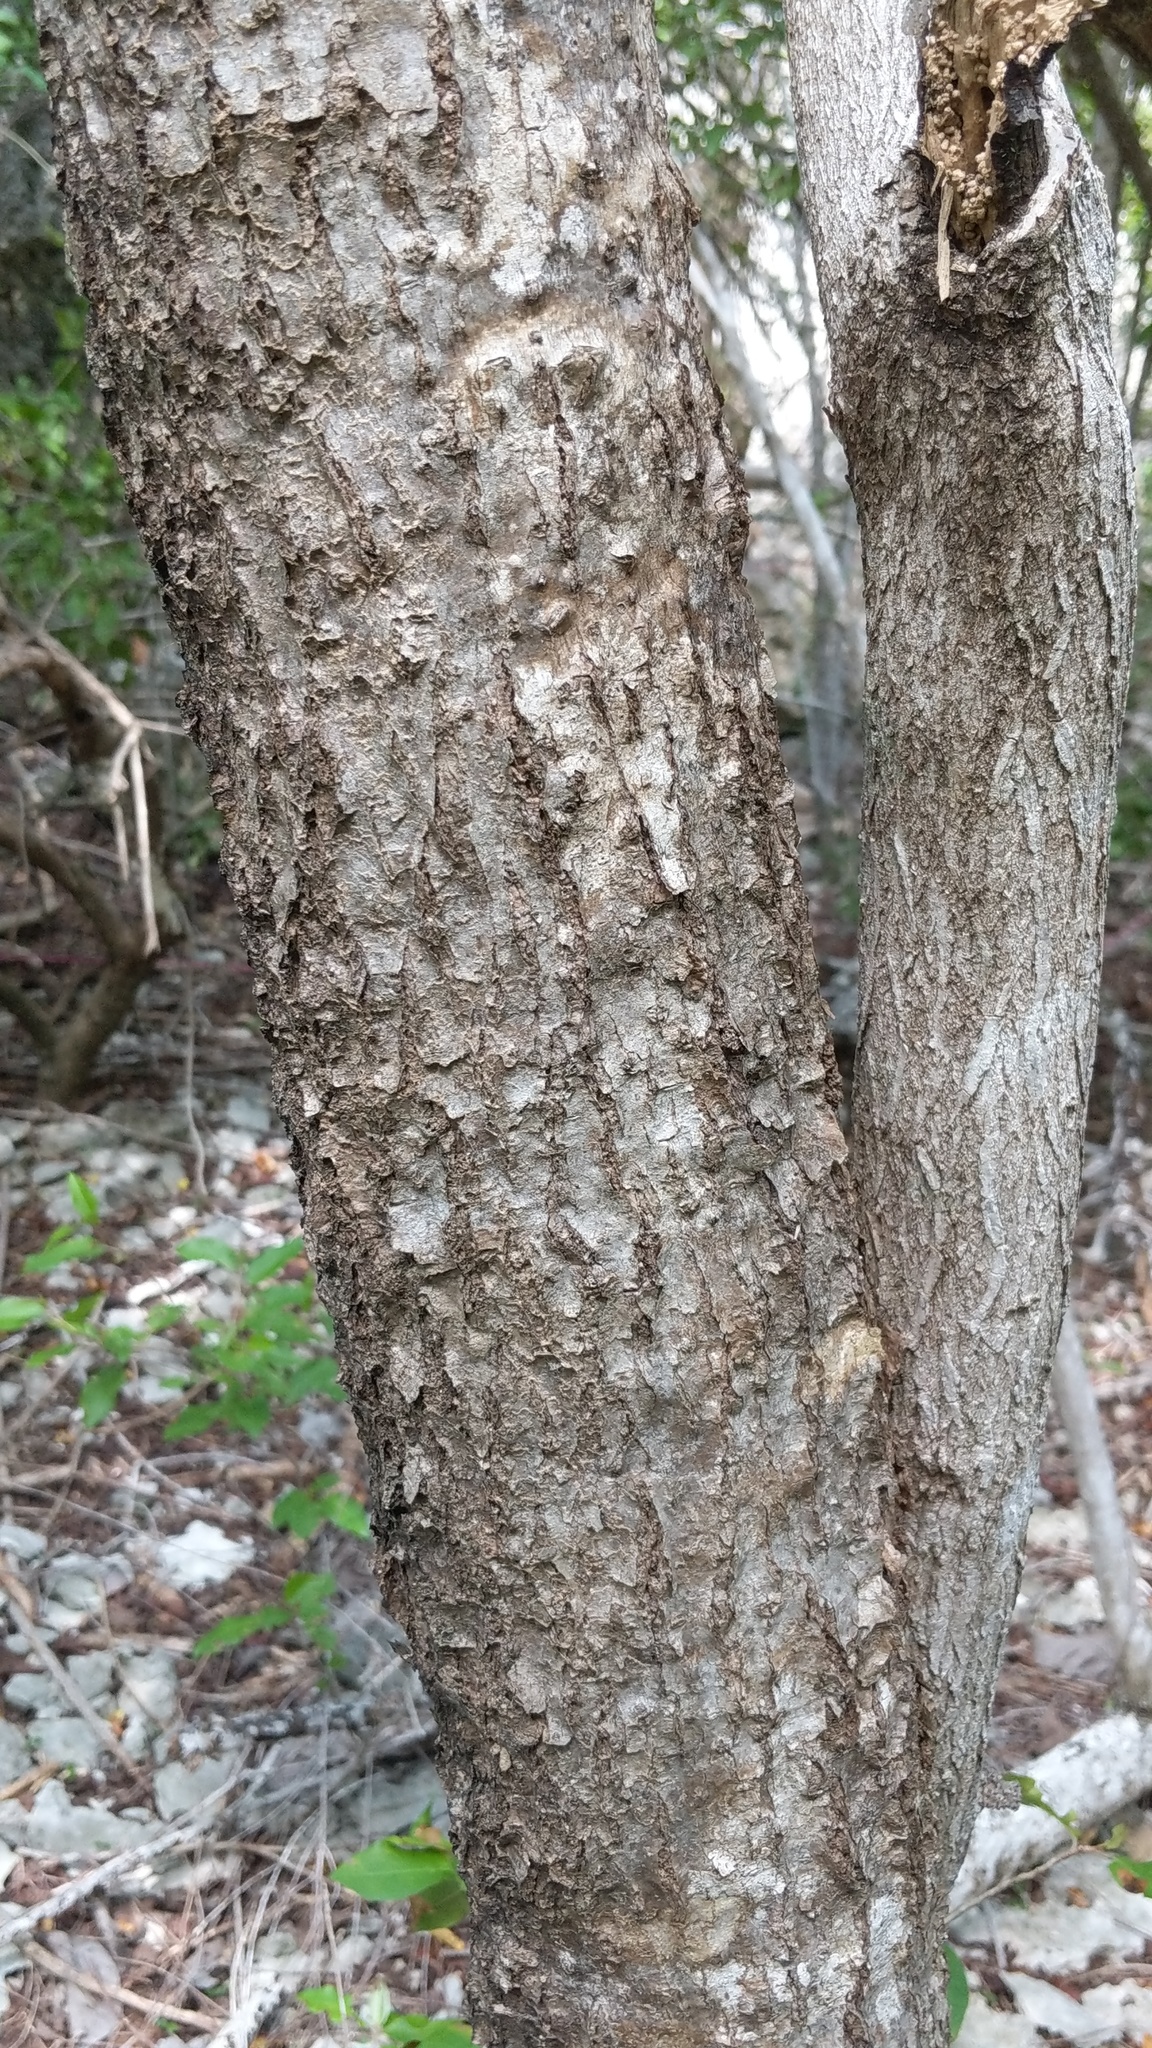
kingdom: Plantae
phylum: Tracheophyta
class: Magnoliopsida
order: Gentianales
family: Apocynaceae
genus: Plumeria
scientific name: Plumeria obtusa
